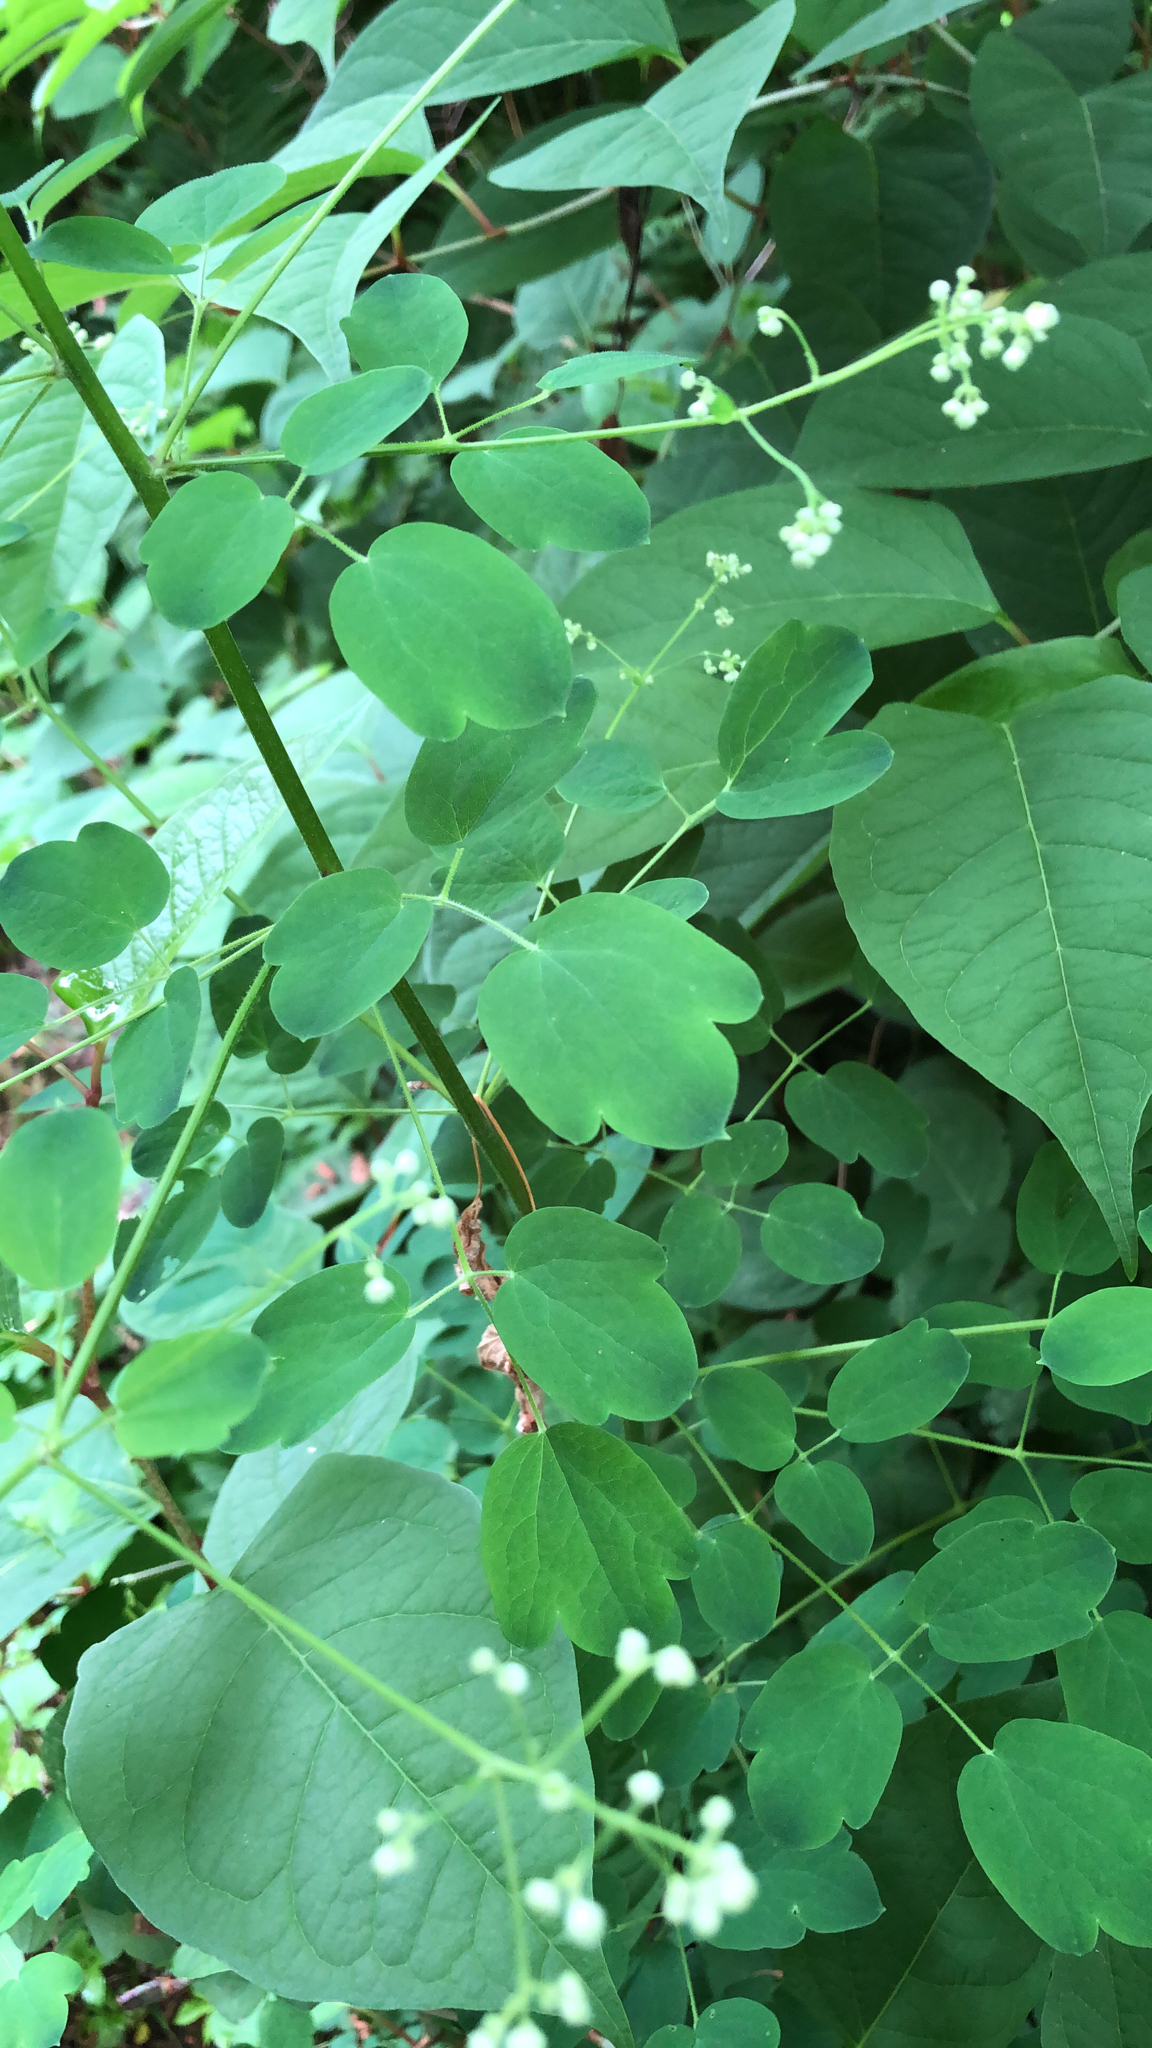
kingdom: Plantae
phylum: Tracheophyta
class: Magnoliopsida
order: Ranunculales
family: Ranunculaceae
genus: Thalictrum
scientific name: Thalictrum pubescens
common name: King-of-the-meadow
